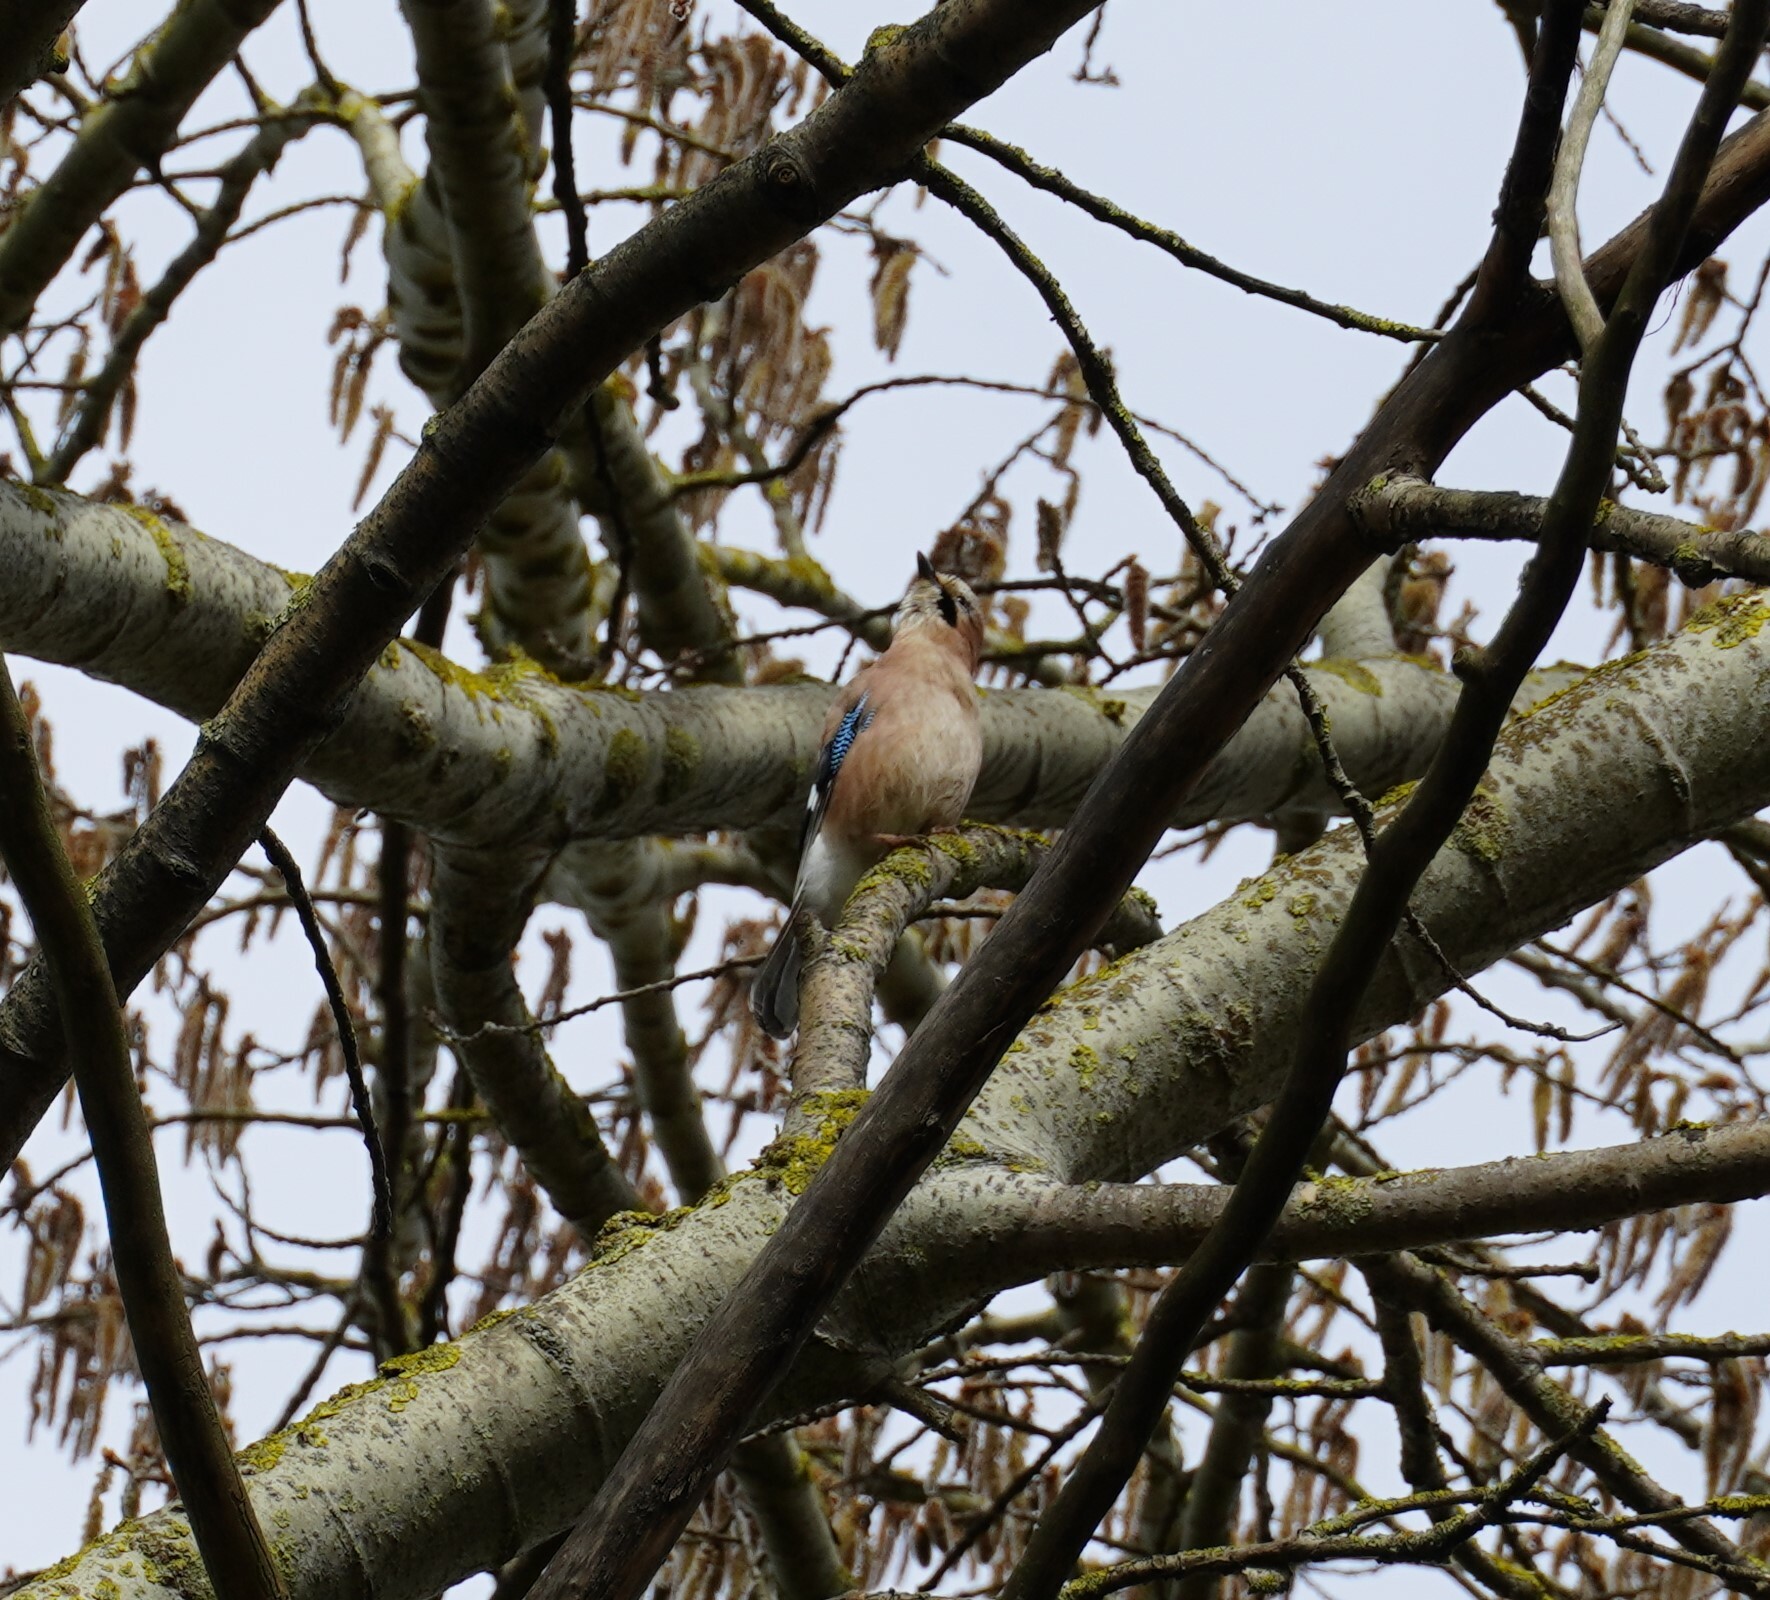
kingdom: Animalia
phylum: Chordata
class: Aves
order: Passeriformes
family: Corvidae
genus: Garrulus
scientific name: Garrulus glandarius
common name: Eurasian jay
